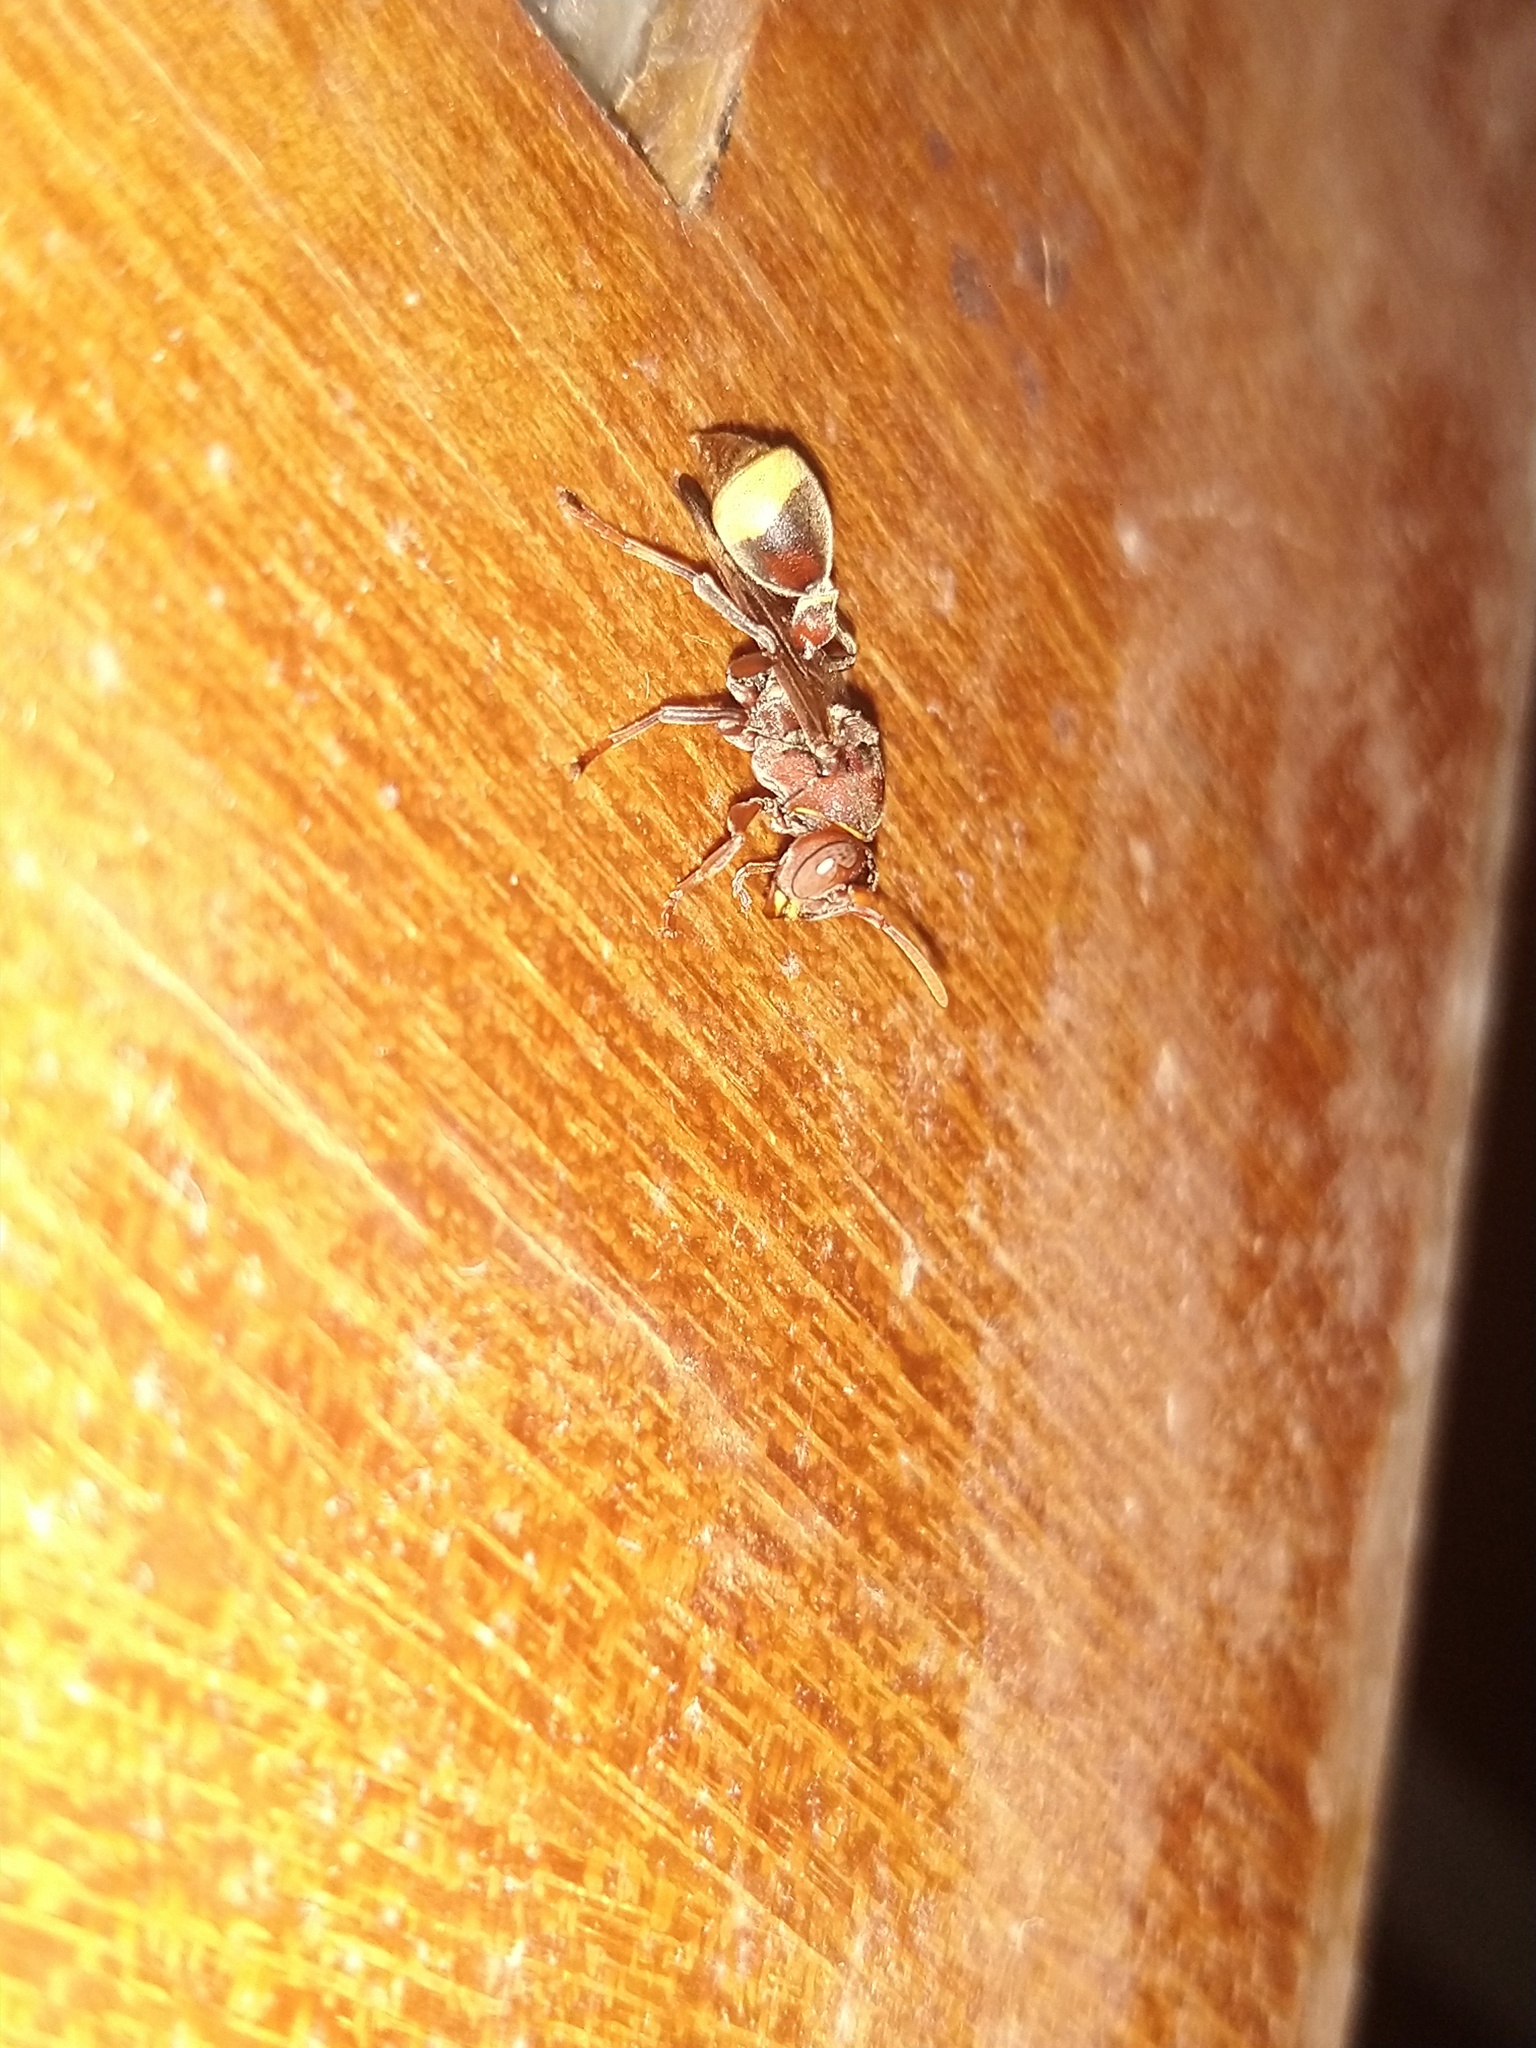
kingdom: Animalia
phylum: Arthropoda
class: Insecta
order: Hymenoptera
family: Vespidae
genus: Ropalidia
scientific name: Ropalidia
